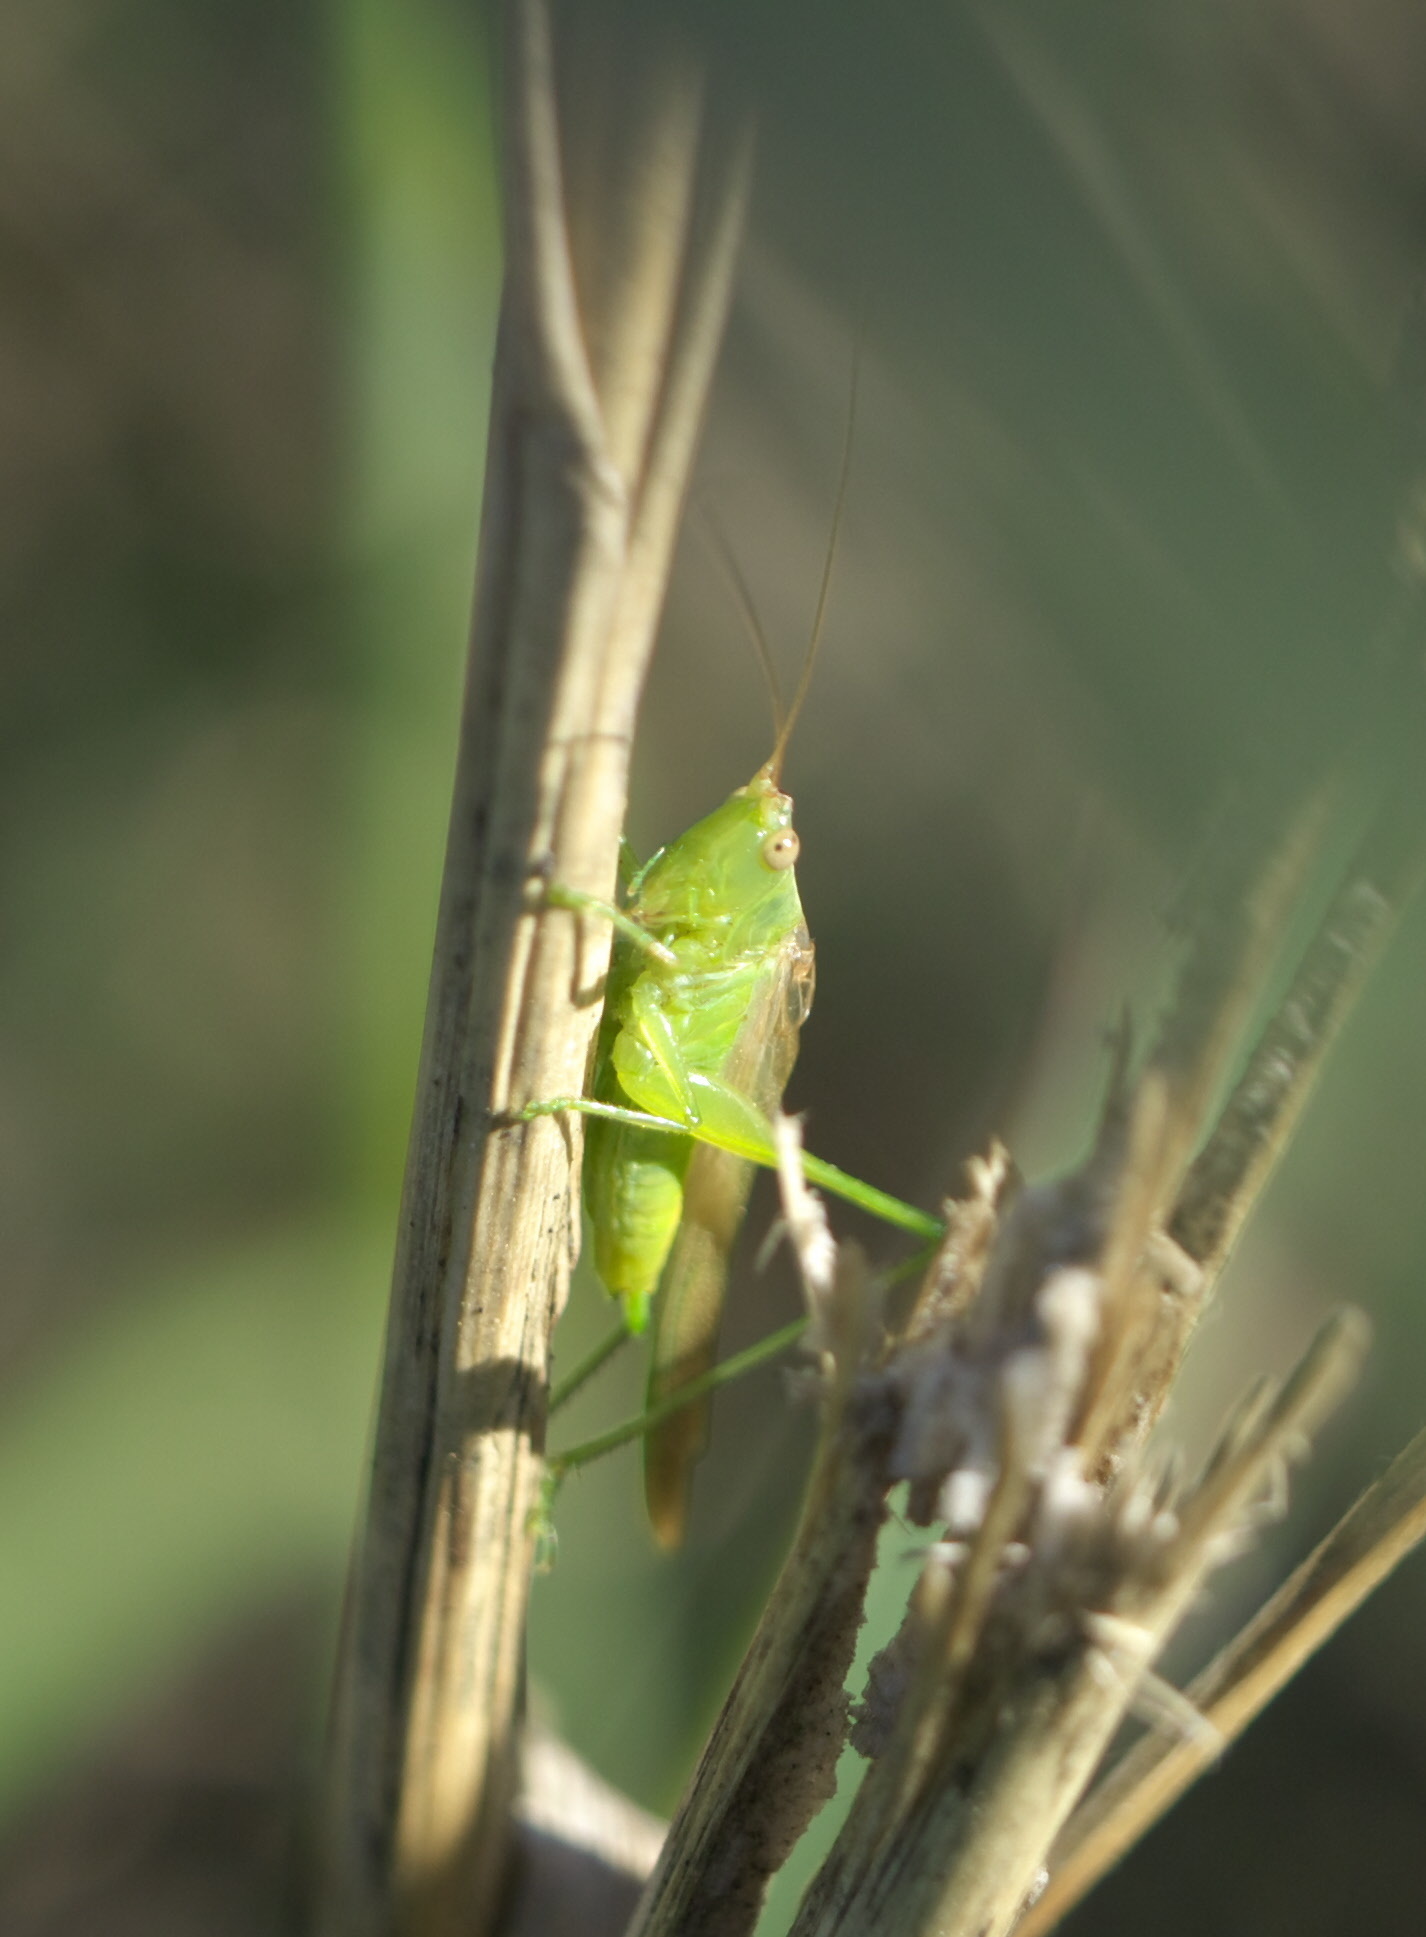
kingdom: Animalia
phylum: Arthropoda
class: Insecta
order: Orthoptera
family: Tettigoniidae
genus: Conocephalus
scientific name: Conocephalus fasciatus
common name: Slender meadow katydid
